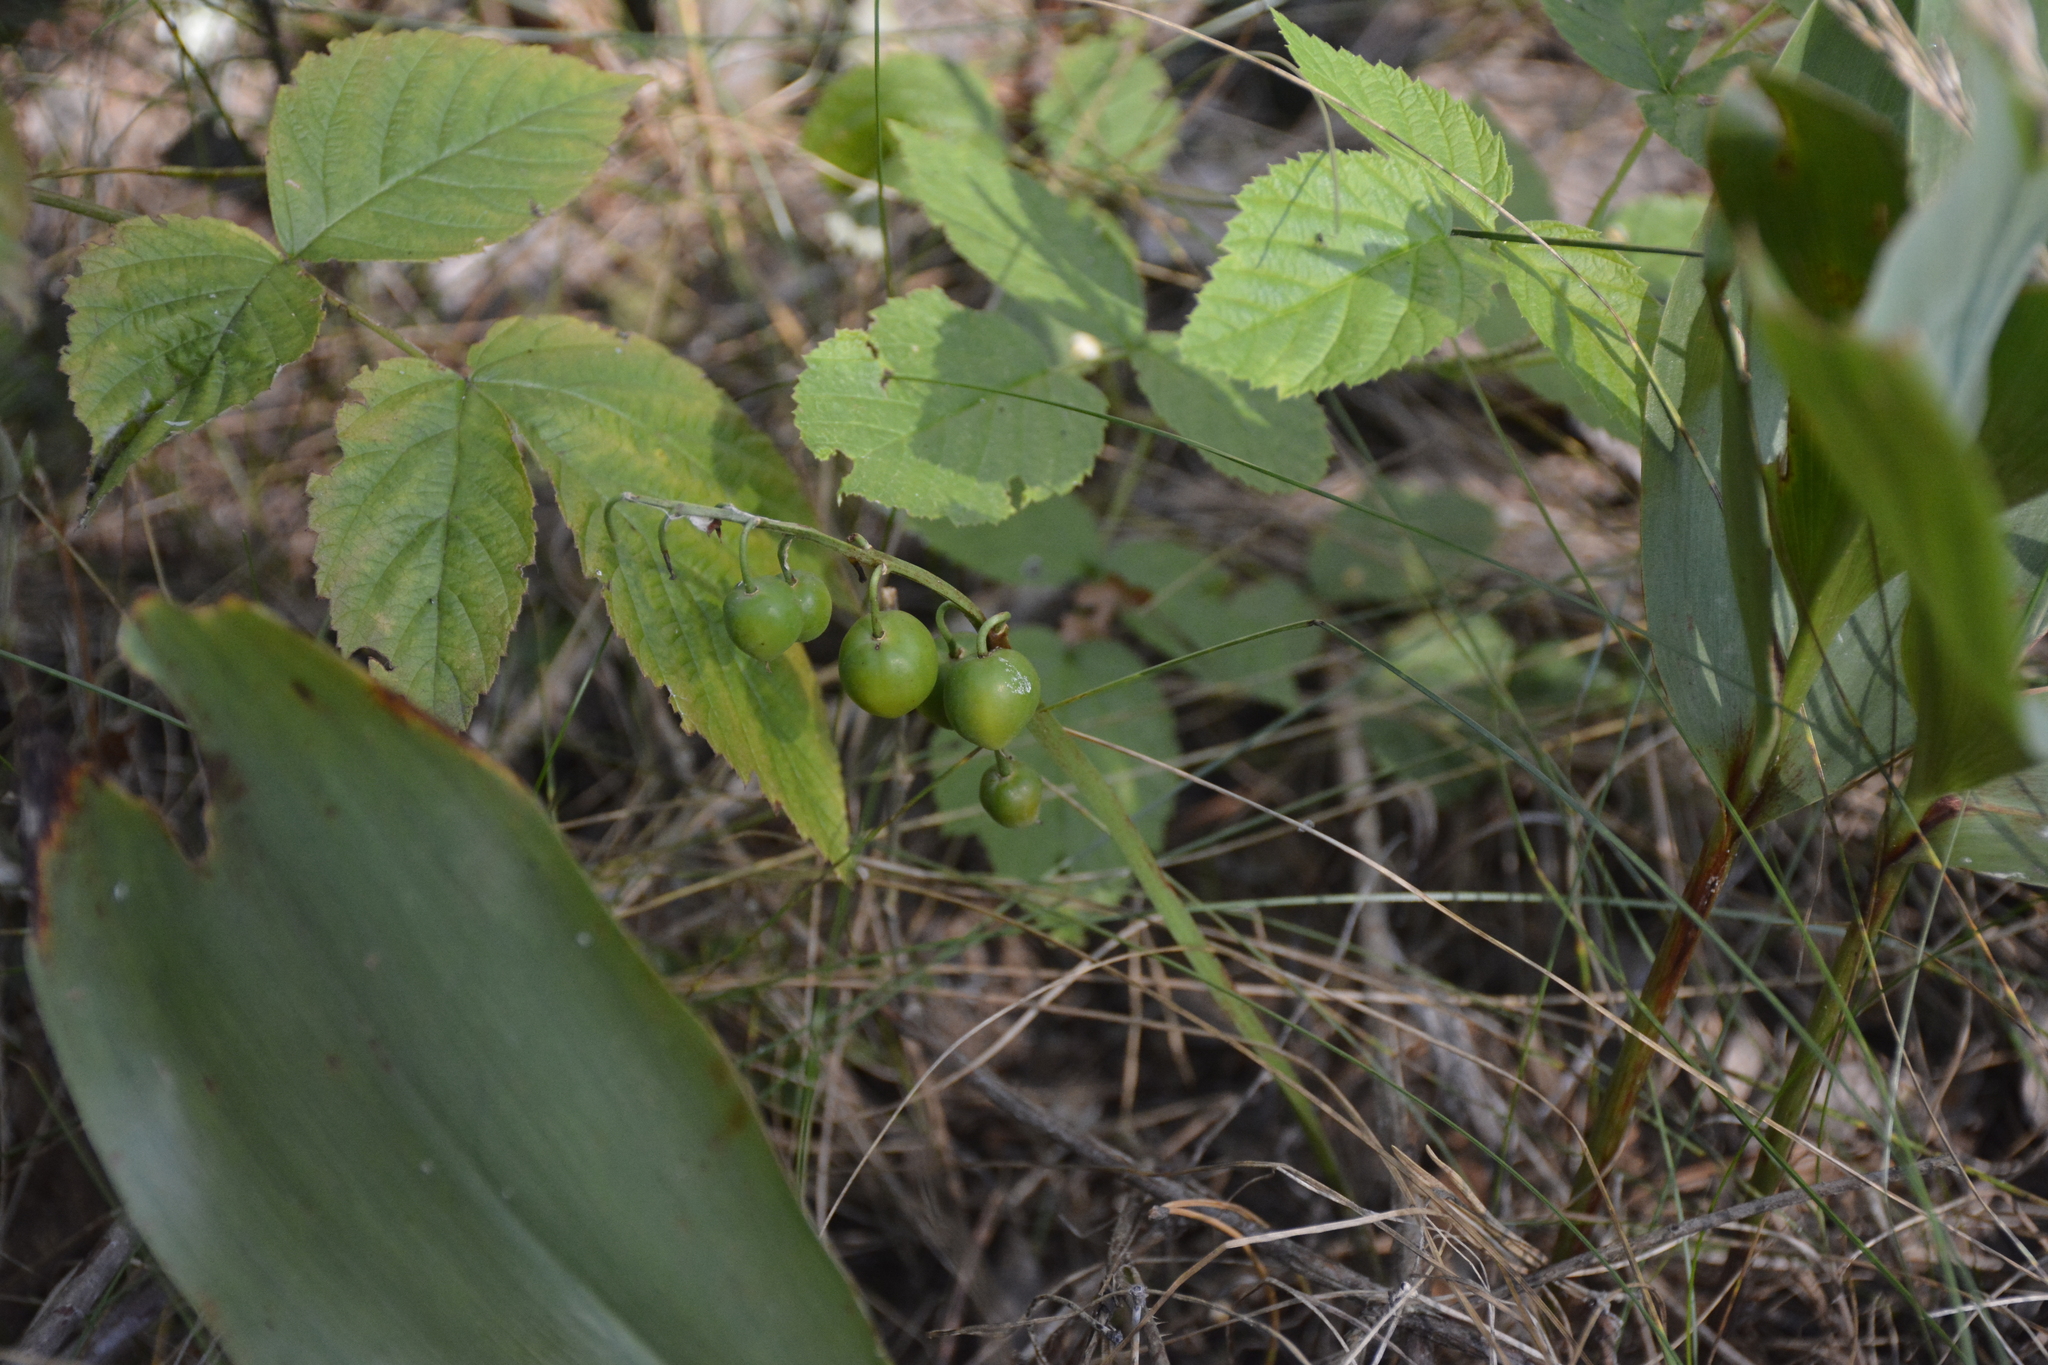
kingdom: Plantae
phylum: Tracheophyta
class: Liliopsida
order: Asparagales
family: Asparagaceae
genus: Convallaria
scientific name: Convallaria majalis
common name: Lily-of-the-valley
